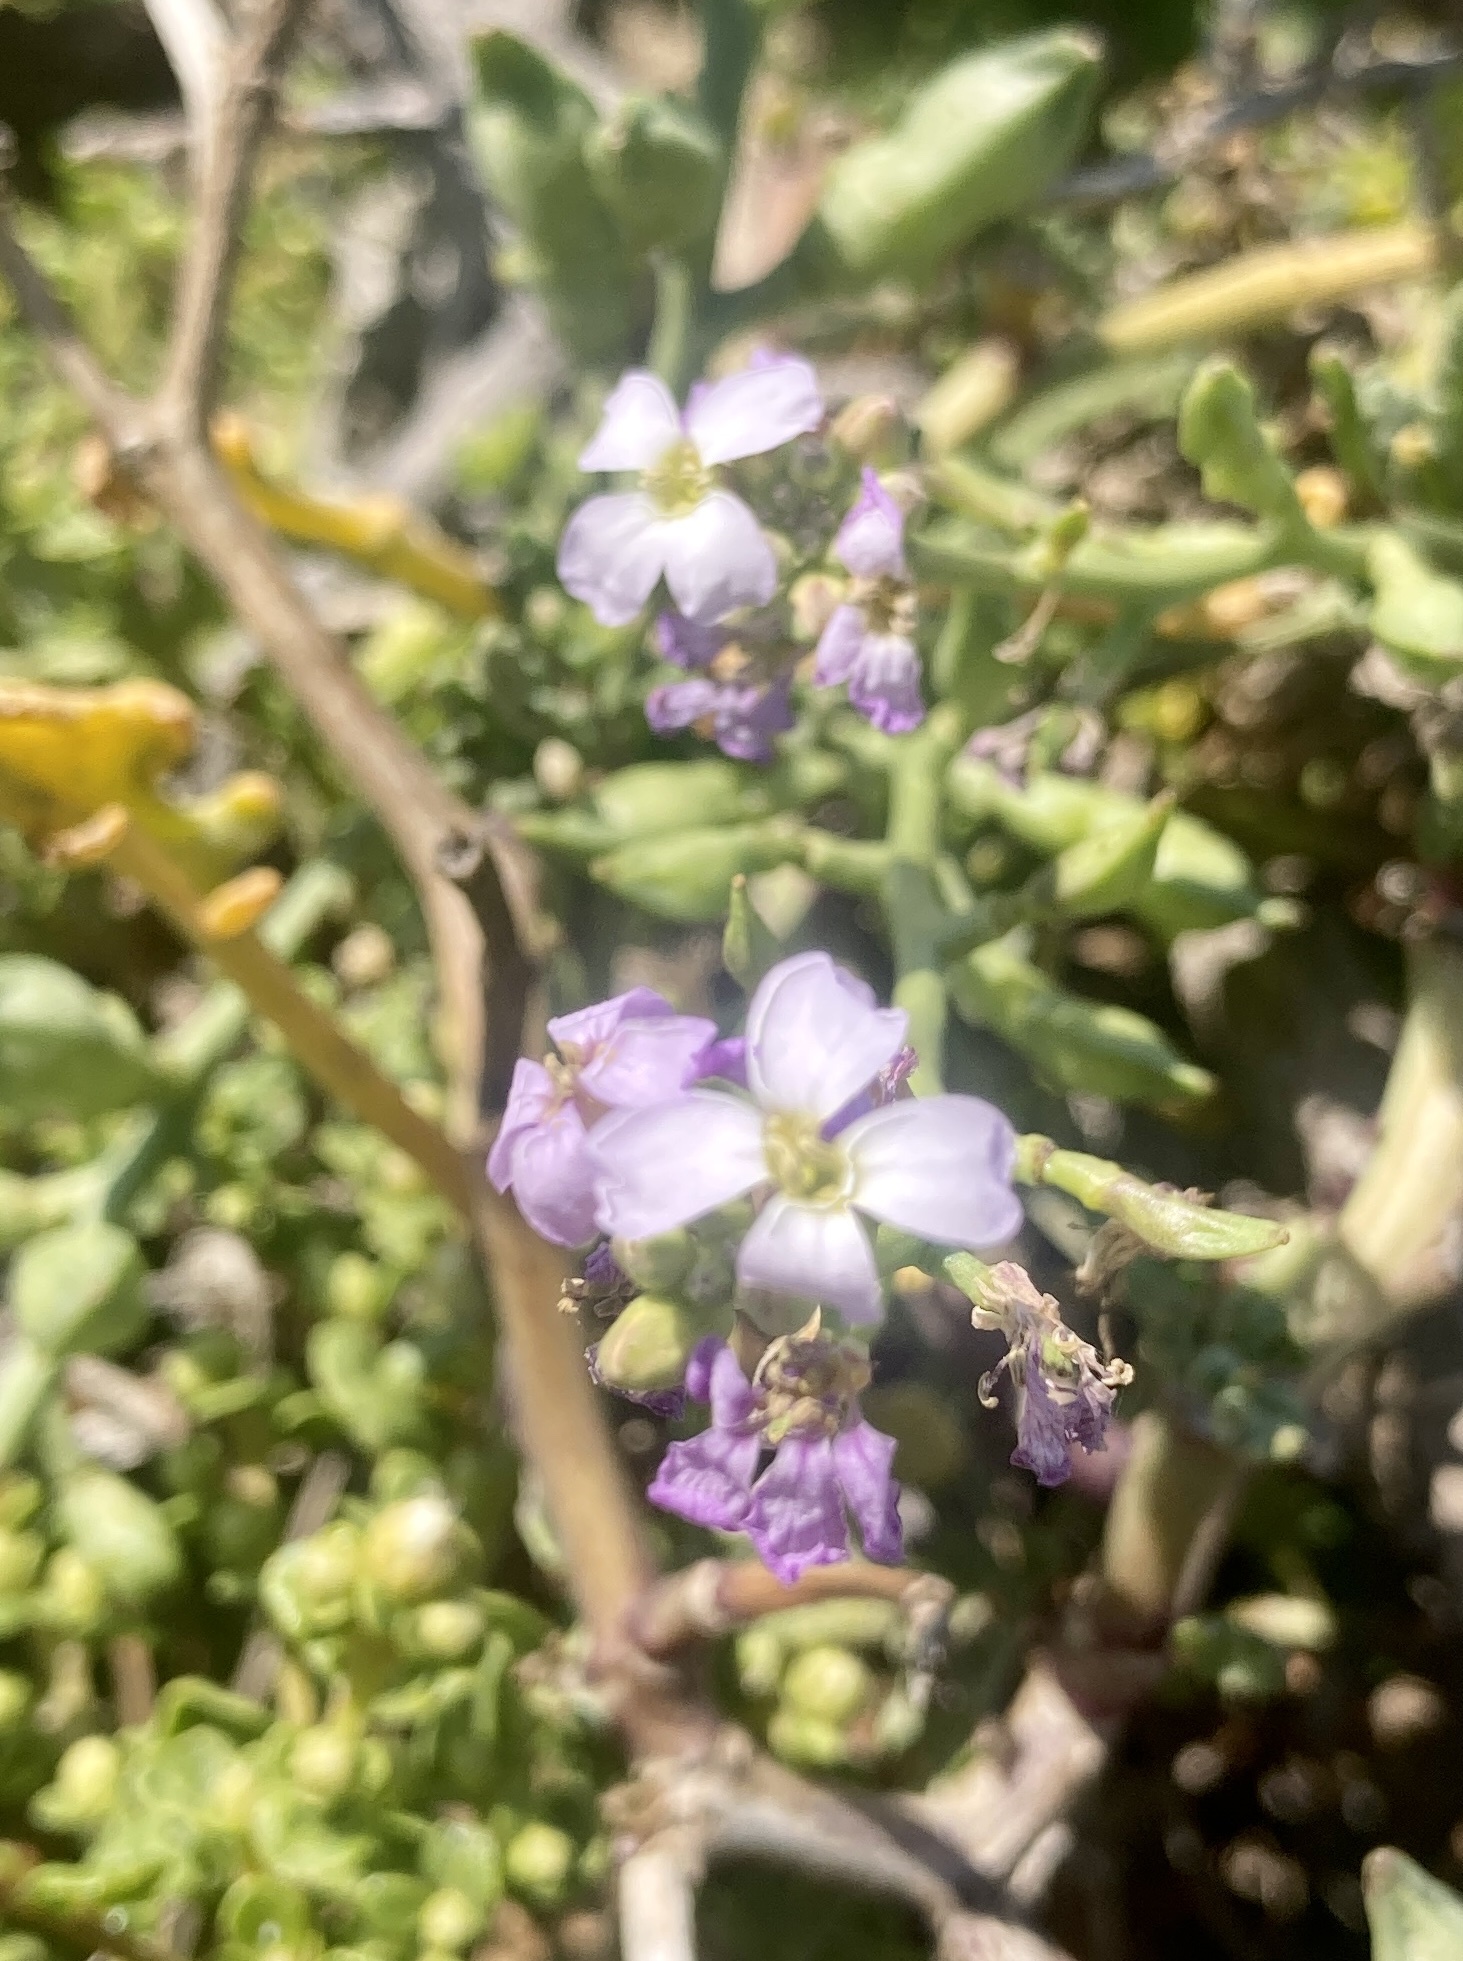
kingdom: Plantae
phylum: Tracheophyta
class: Magnoliopsida
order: Brassicales
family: Brassicaceae
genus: Cakile
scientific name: Cakile maritima
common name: Sea rocket
